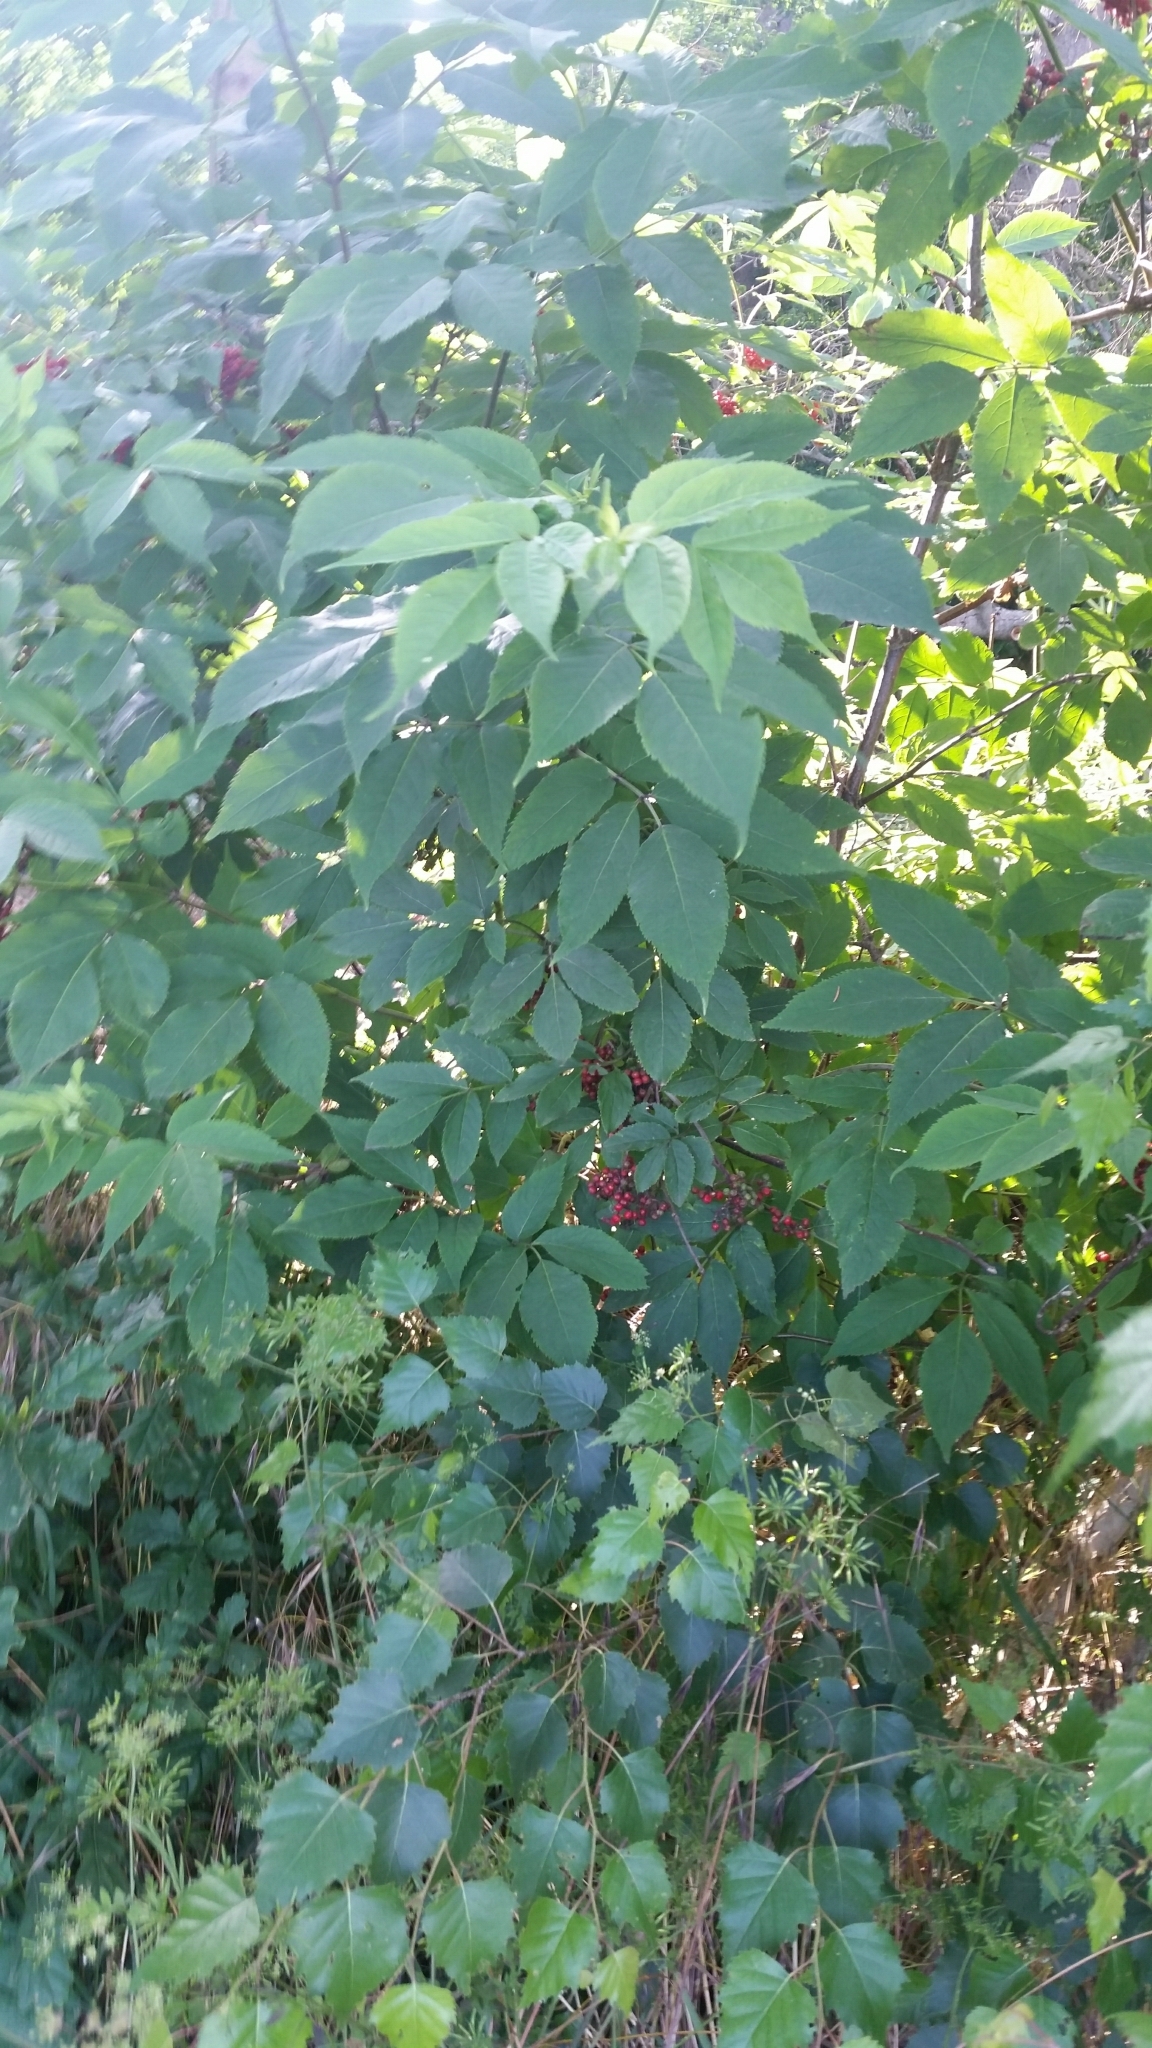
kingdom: Plantae
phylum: Tracheophyta
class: Magnoliopsida
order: Dipsacales
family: Viburnaceae
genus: Sambucus
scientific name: Sambucus racemosa
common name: Red-berried elder
